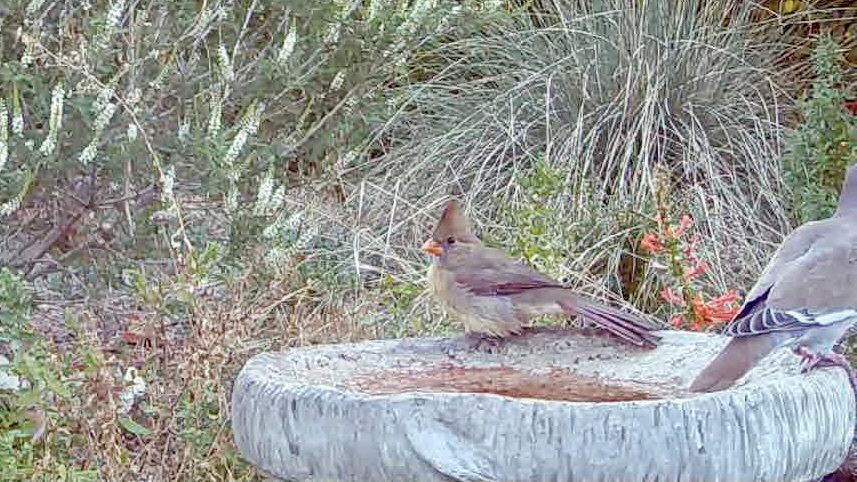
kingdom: Animalia
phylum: Chordata
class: Aves
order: Passeriformes
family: Cardinalidae
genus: Cardinalis
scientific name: Cardinalis cardinalis
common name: Northern cardinal
